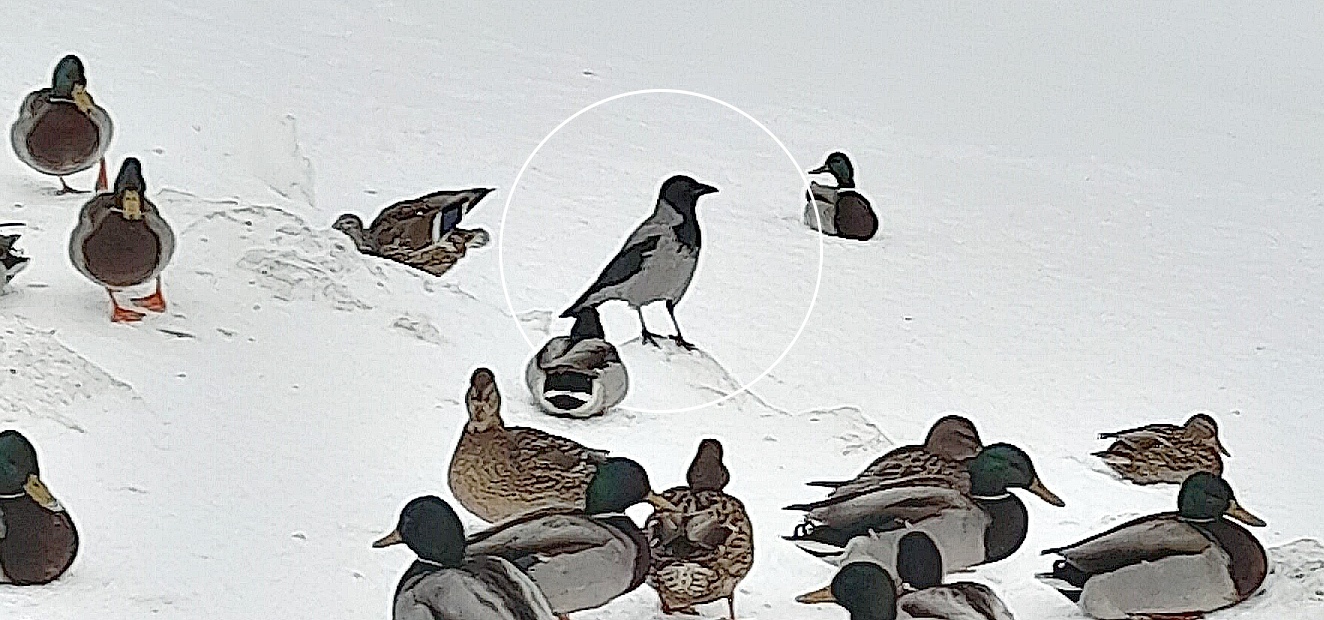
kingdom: Animalia
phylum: Chordata
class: Aves
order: Passeriformes
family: Corvidae
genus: Corvus
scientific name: Corvus cornix
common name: Hooded crow
